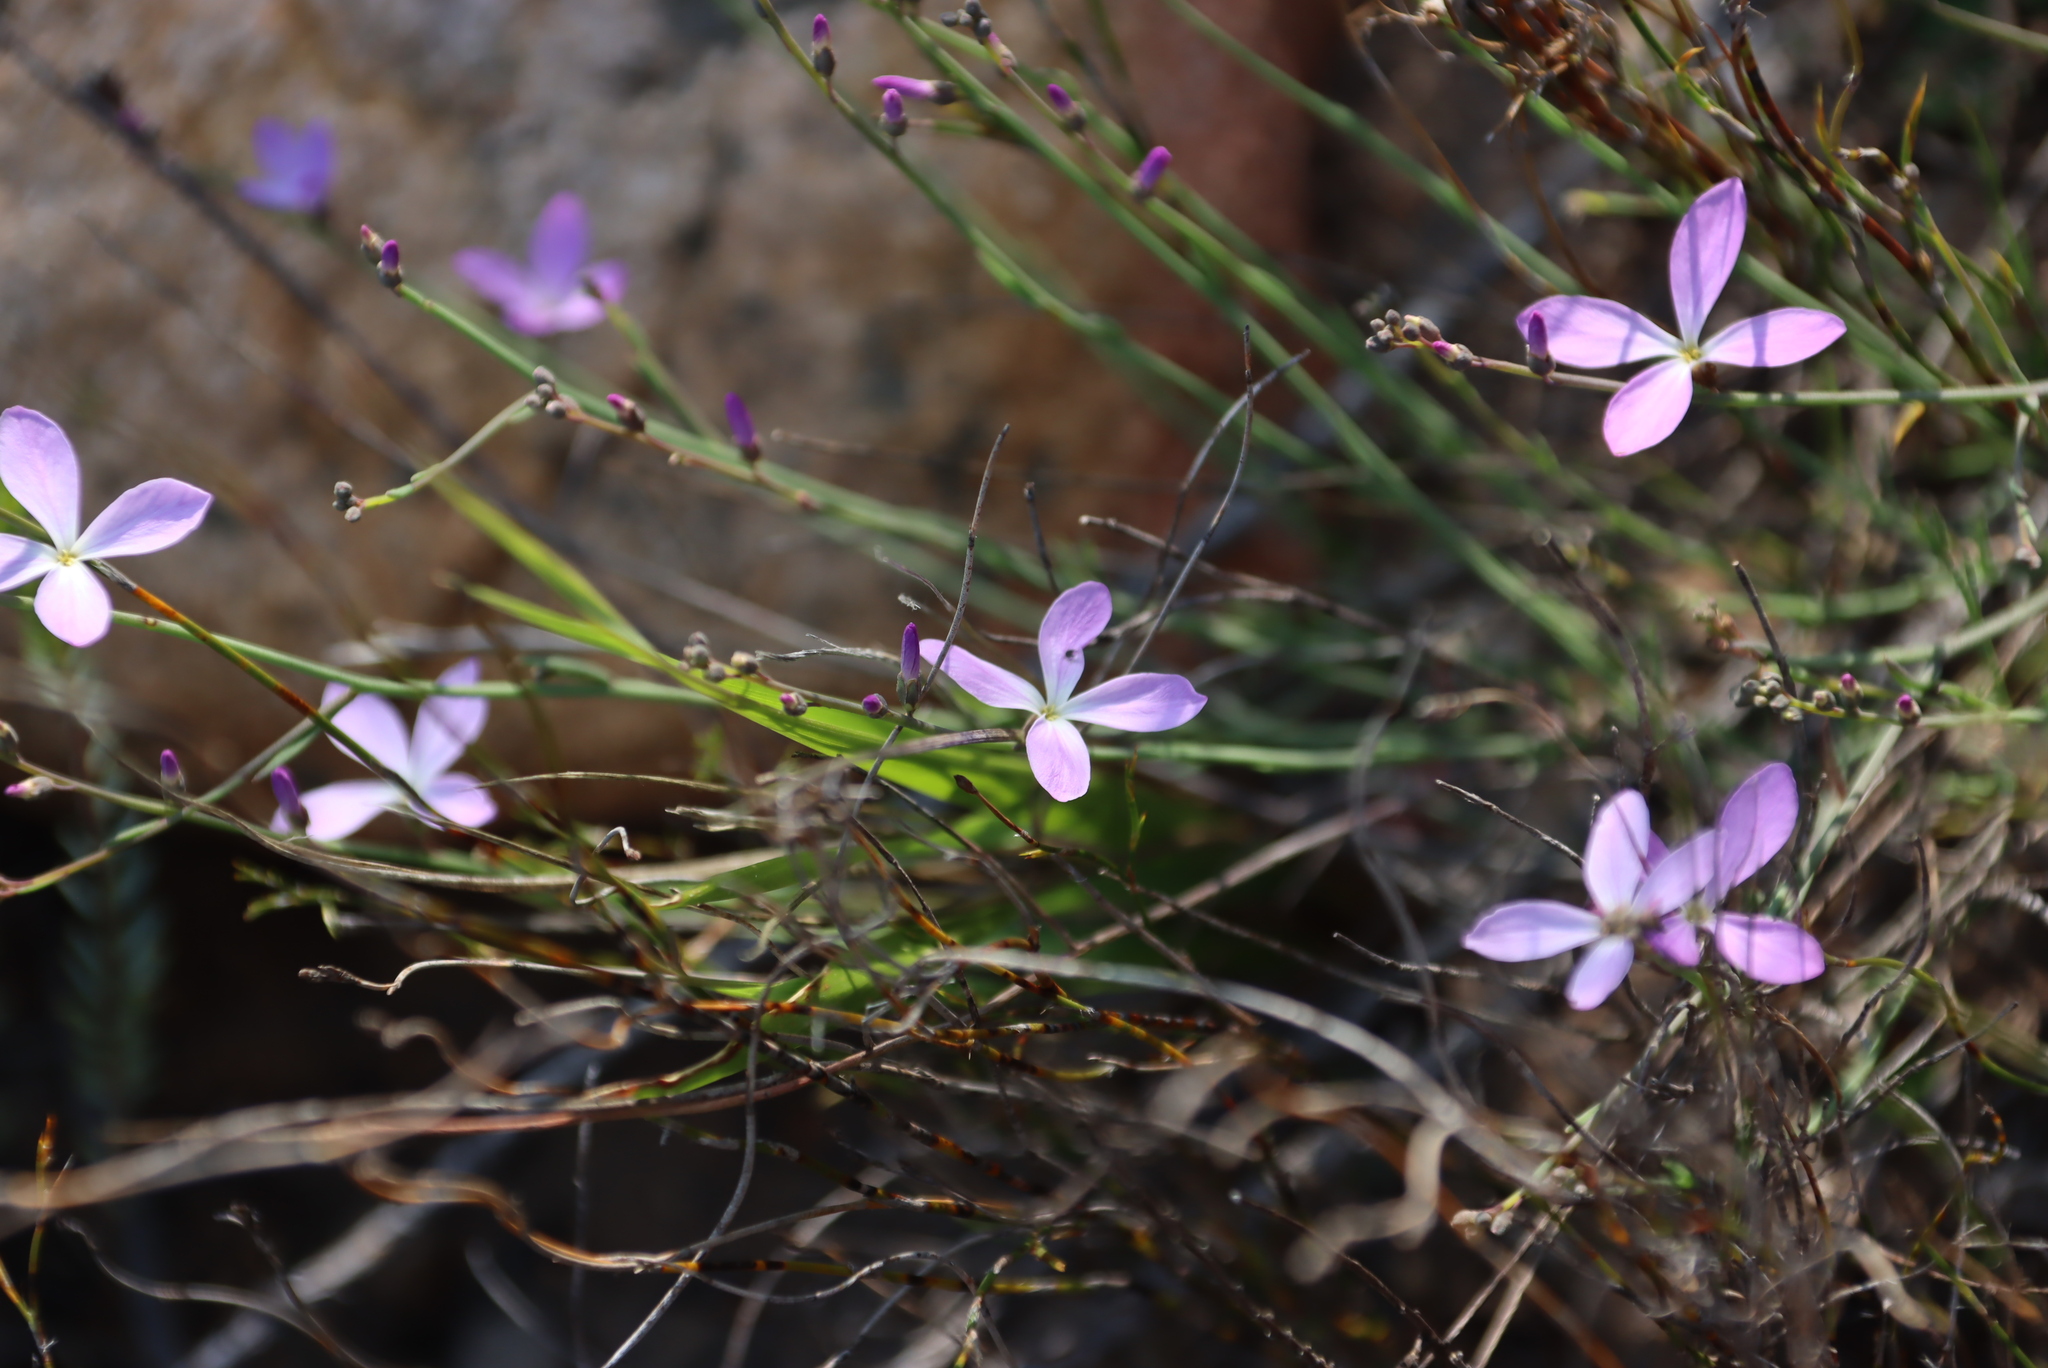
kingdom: Plantae
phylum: Tracheophyta
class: Magnoliopsida
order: Brassicales
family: Brassicaceae
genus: Heliophila
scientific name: Heliophila juncea
